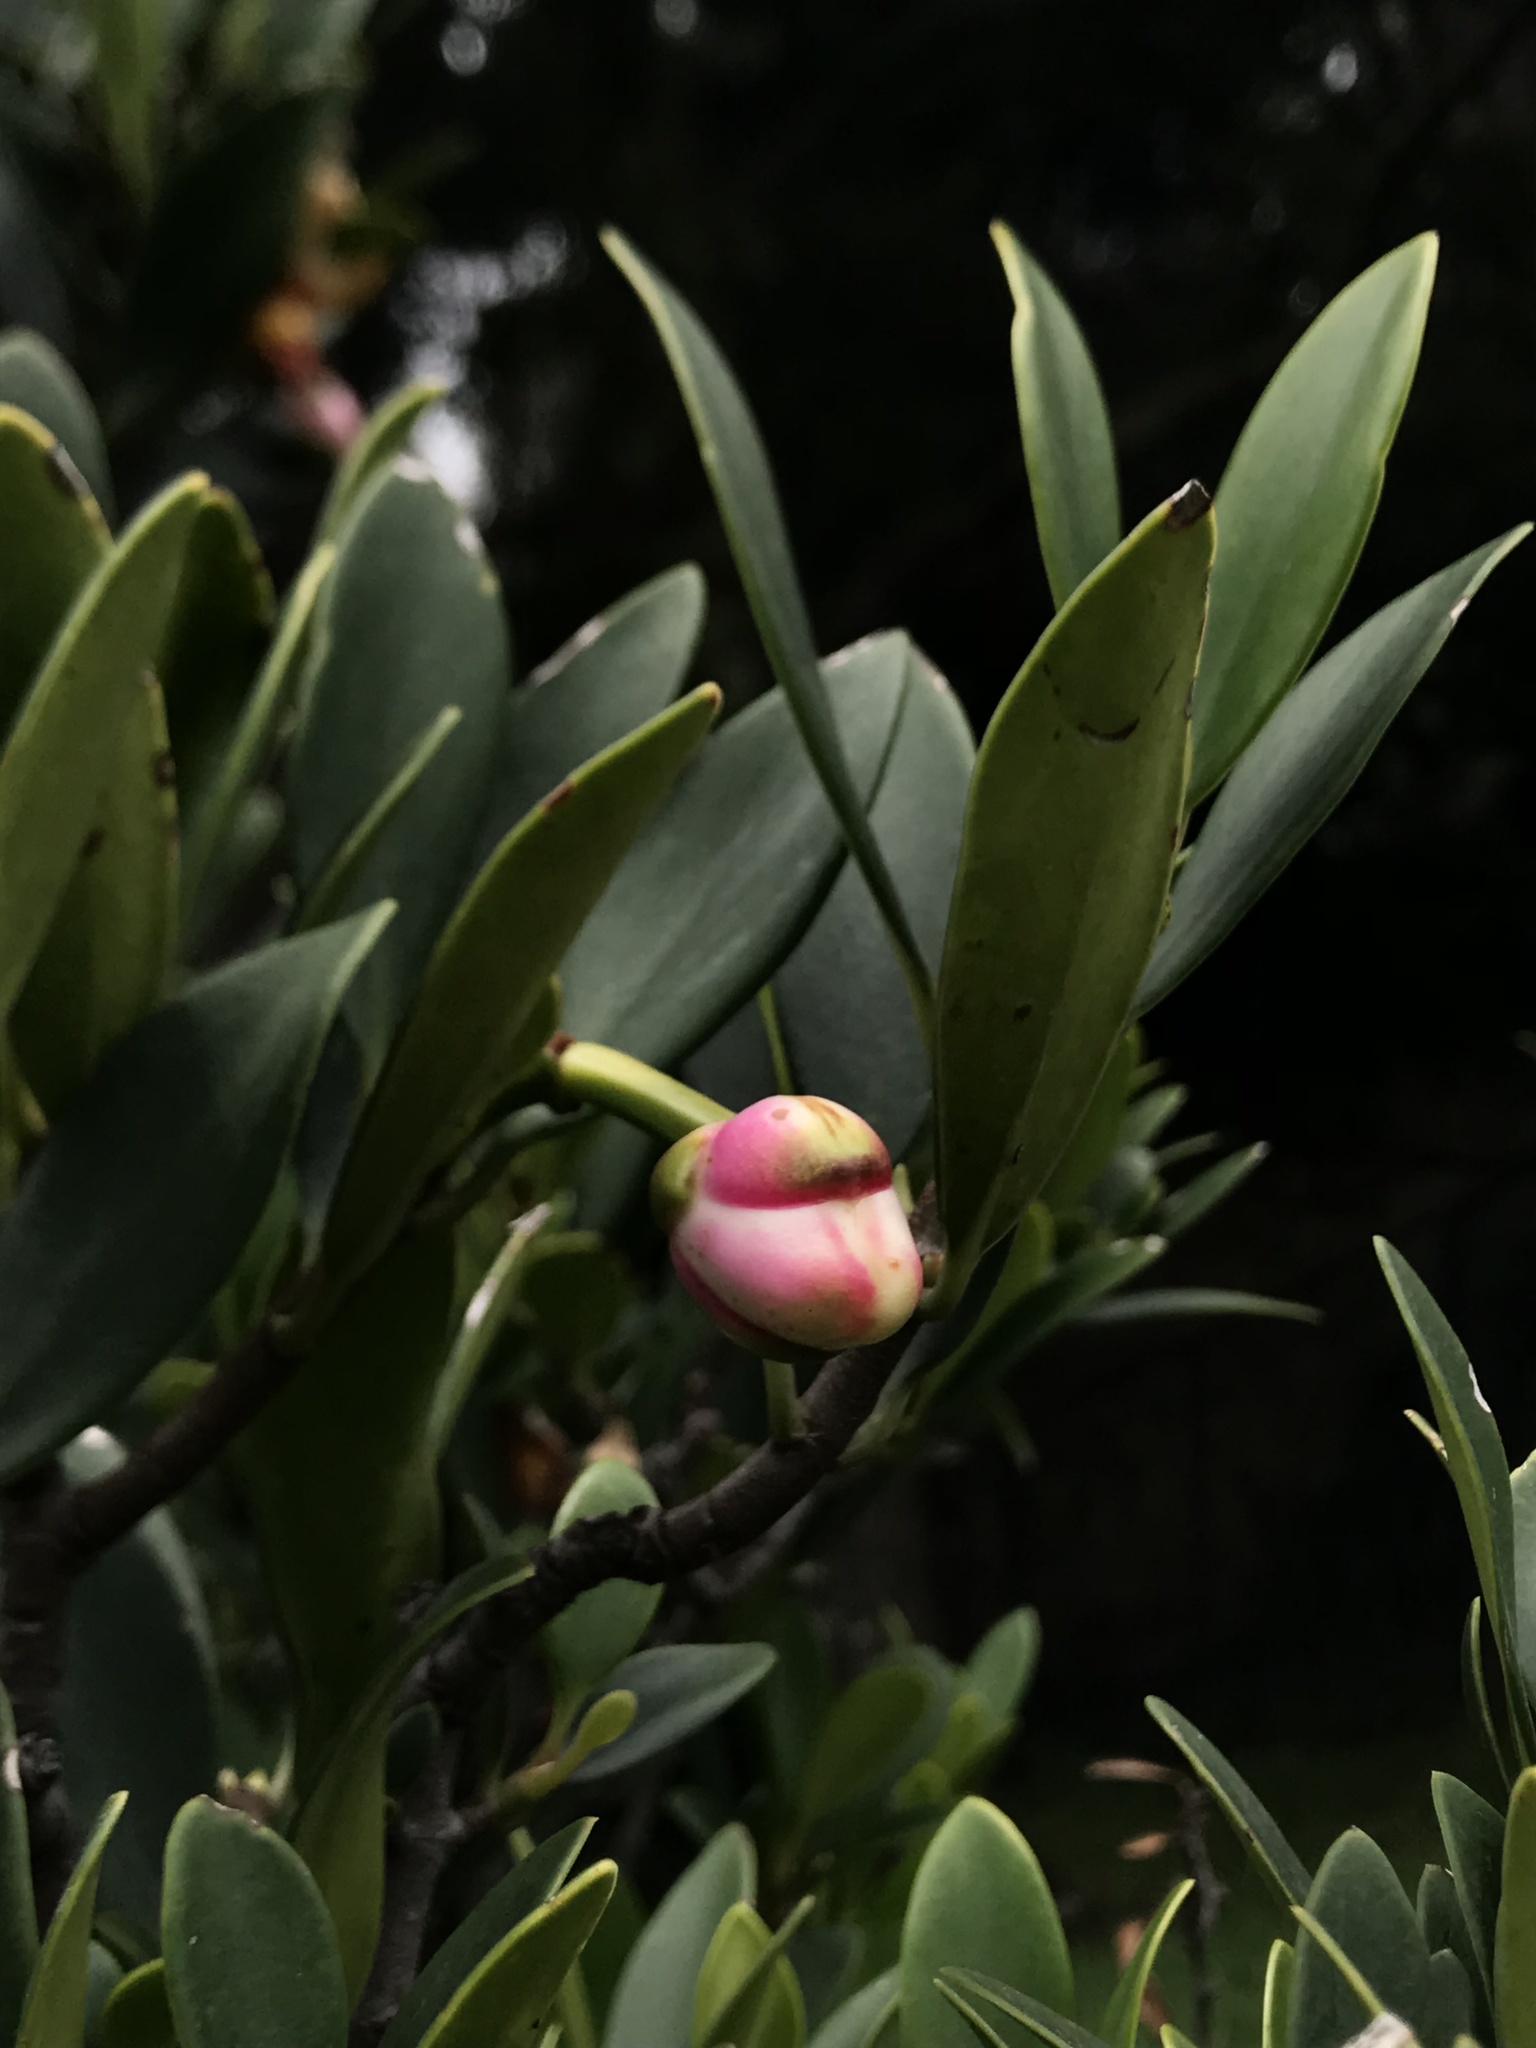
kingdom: Plantae
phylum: Tracheophyta
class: Magnoliopsida
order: Malpighiales
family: Clusiaceae
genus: Clusia
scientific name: Clusia orthoneura
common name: Porcelain-flower
